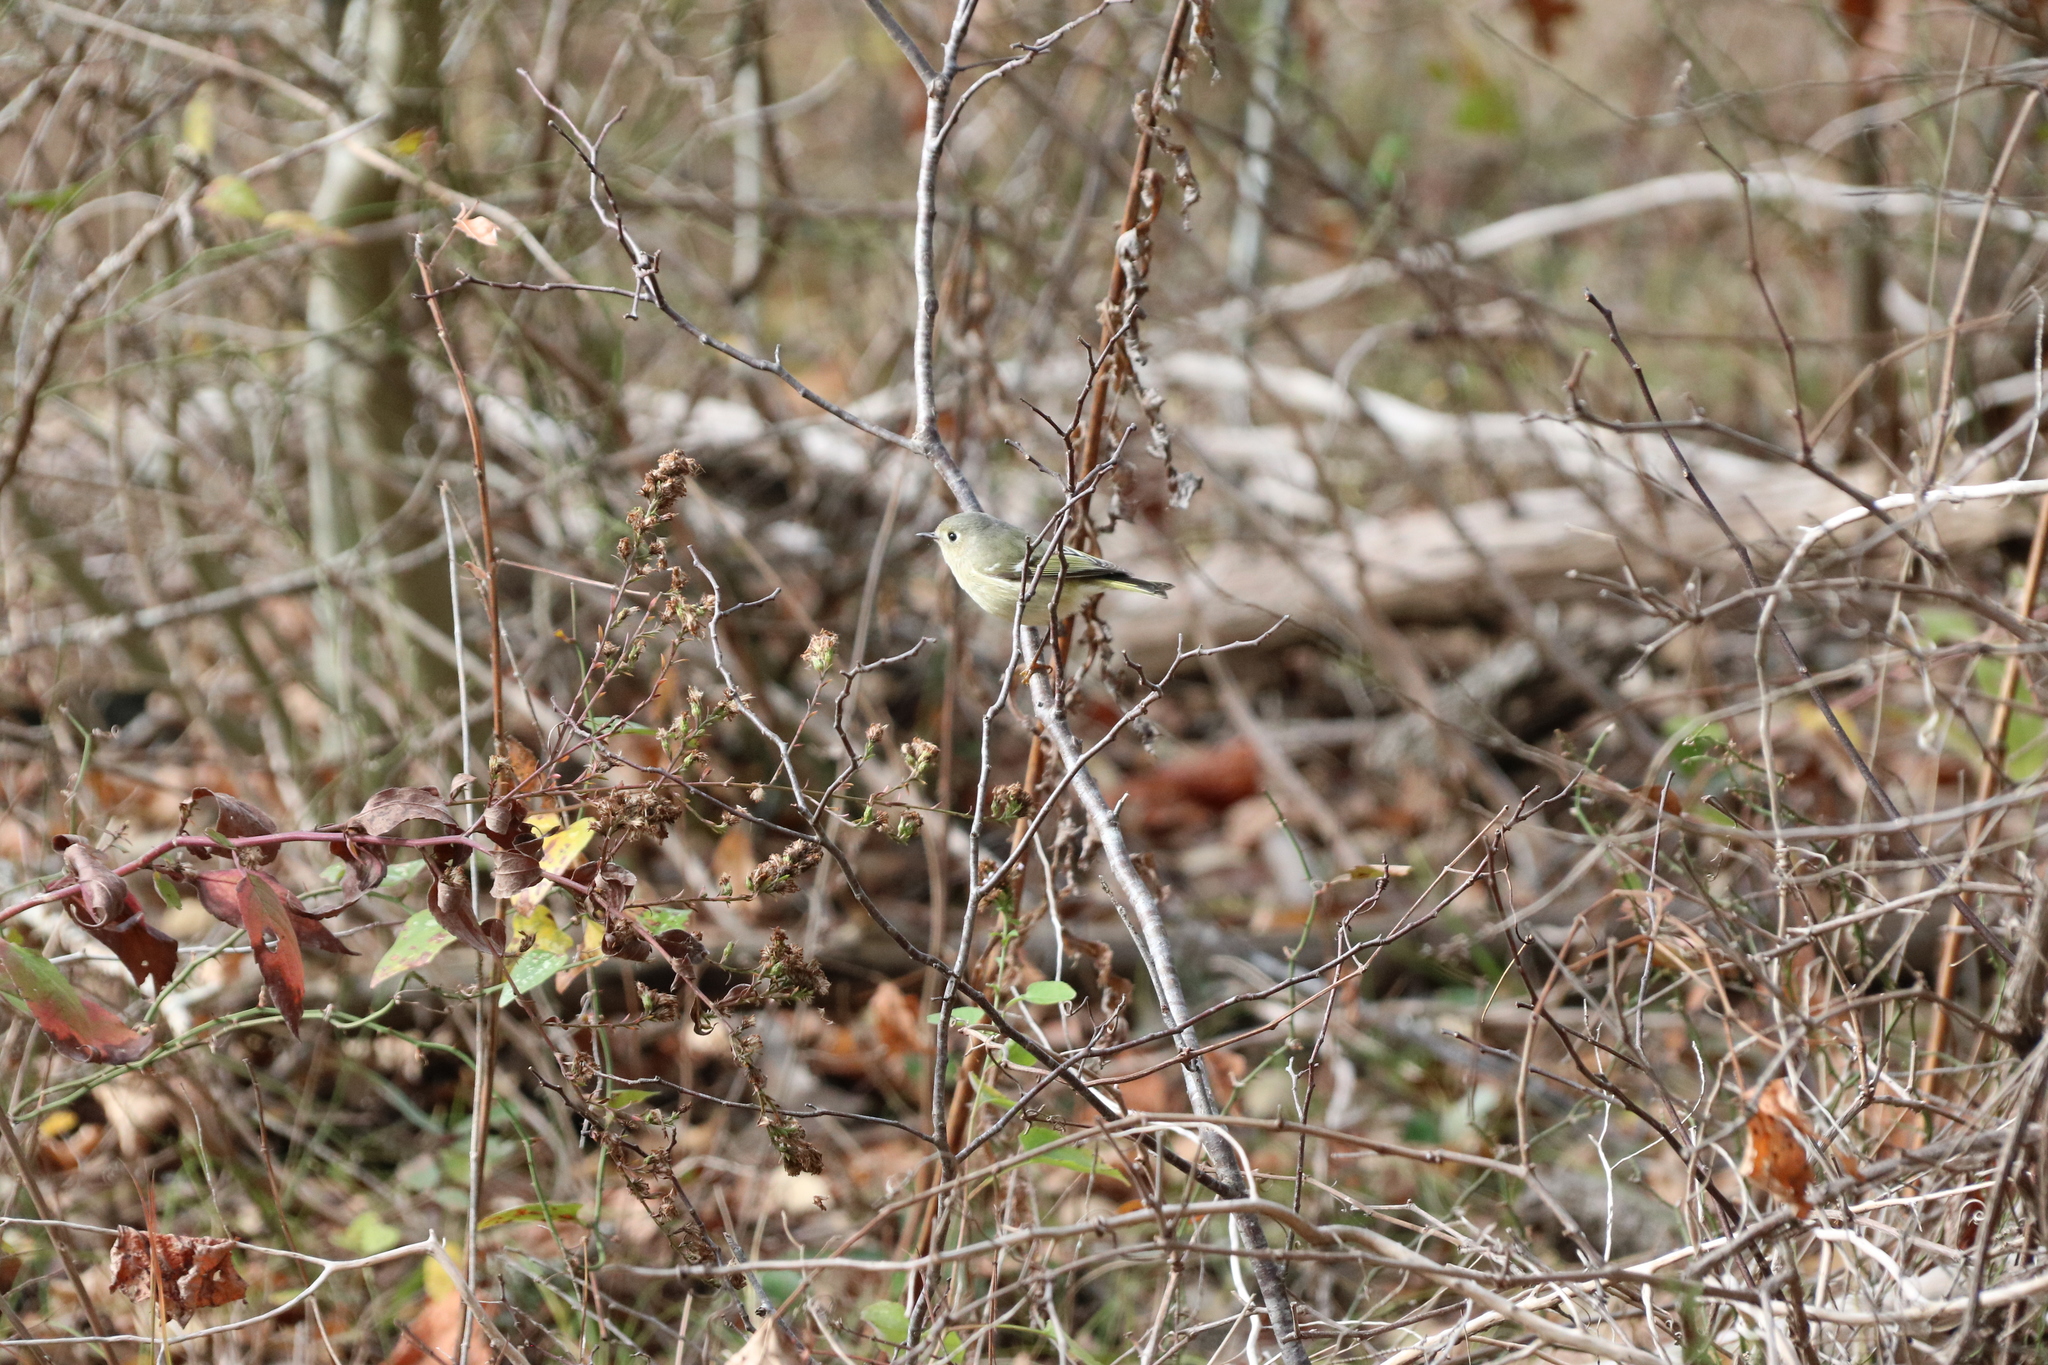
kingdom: Animalia
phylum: Chordata
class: Aves
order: Passeriformes
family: Regulidae
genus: Regulus
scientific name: Regulus calendula
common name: Ruby-crowned kinglet
